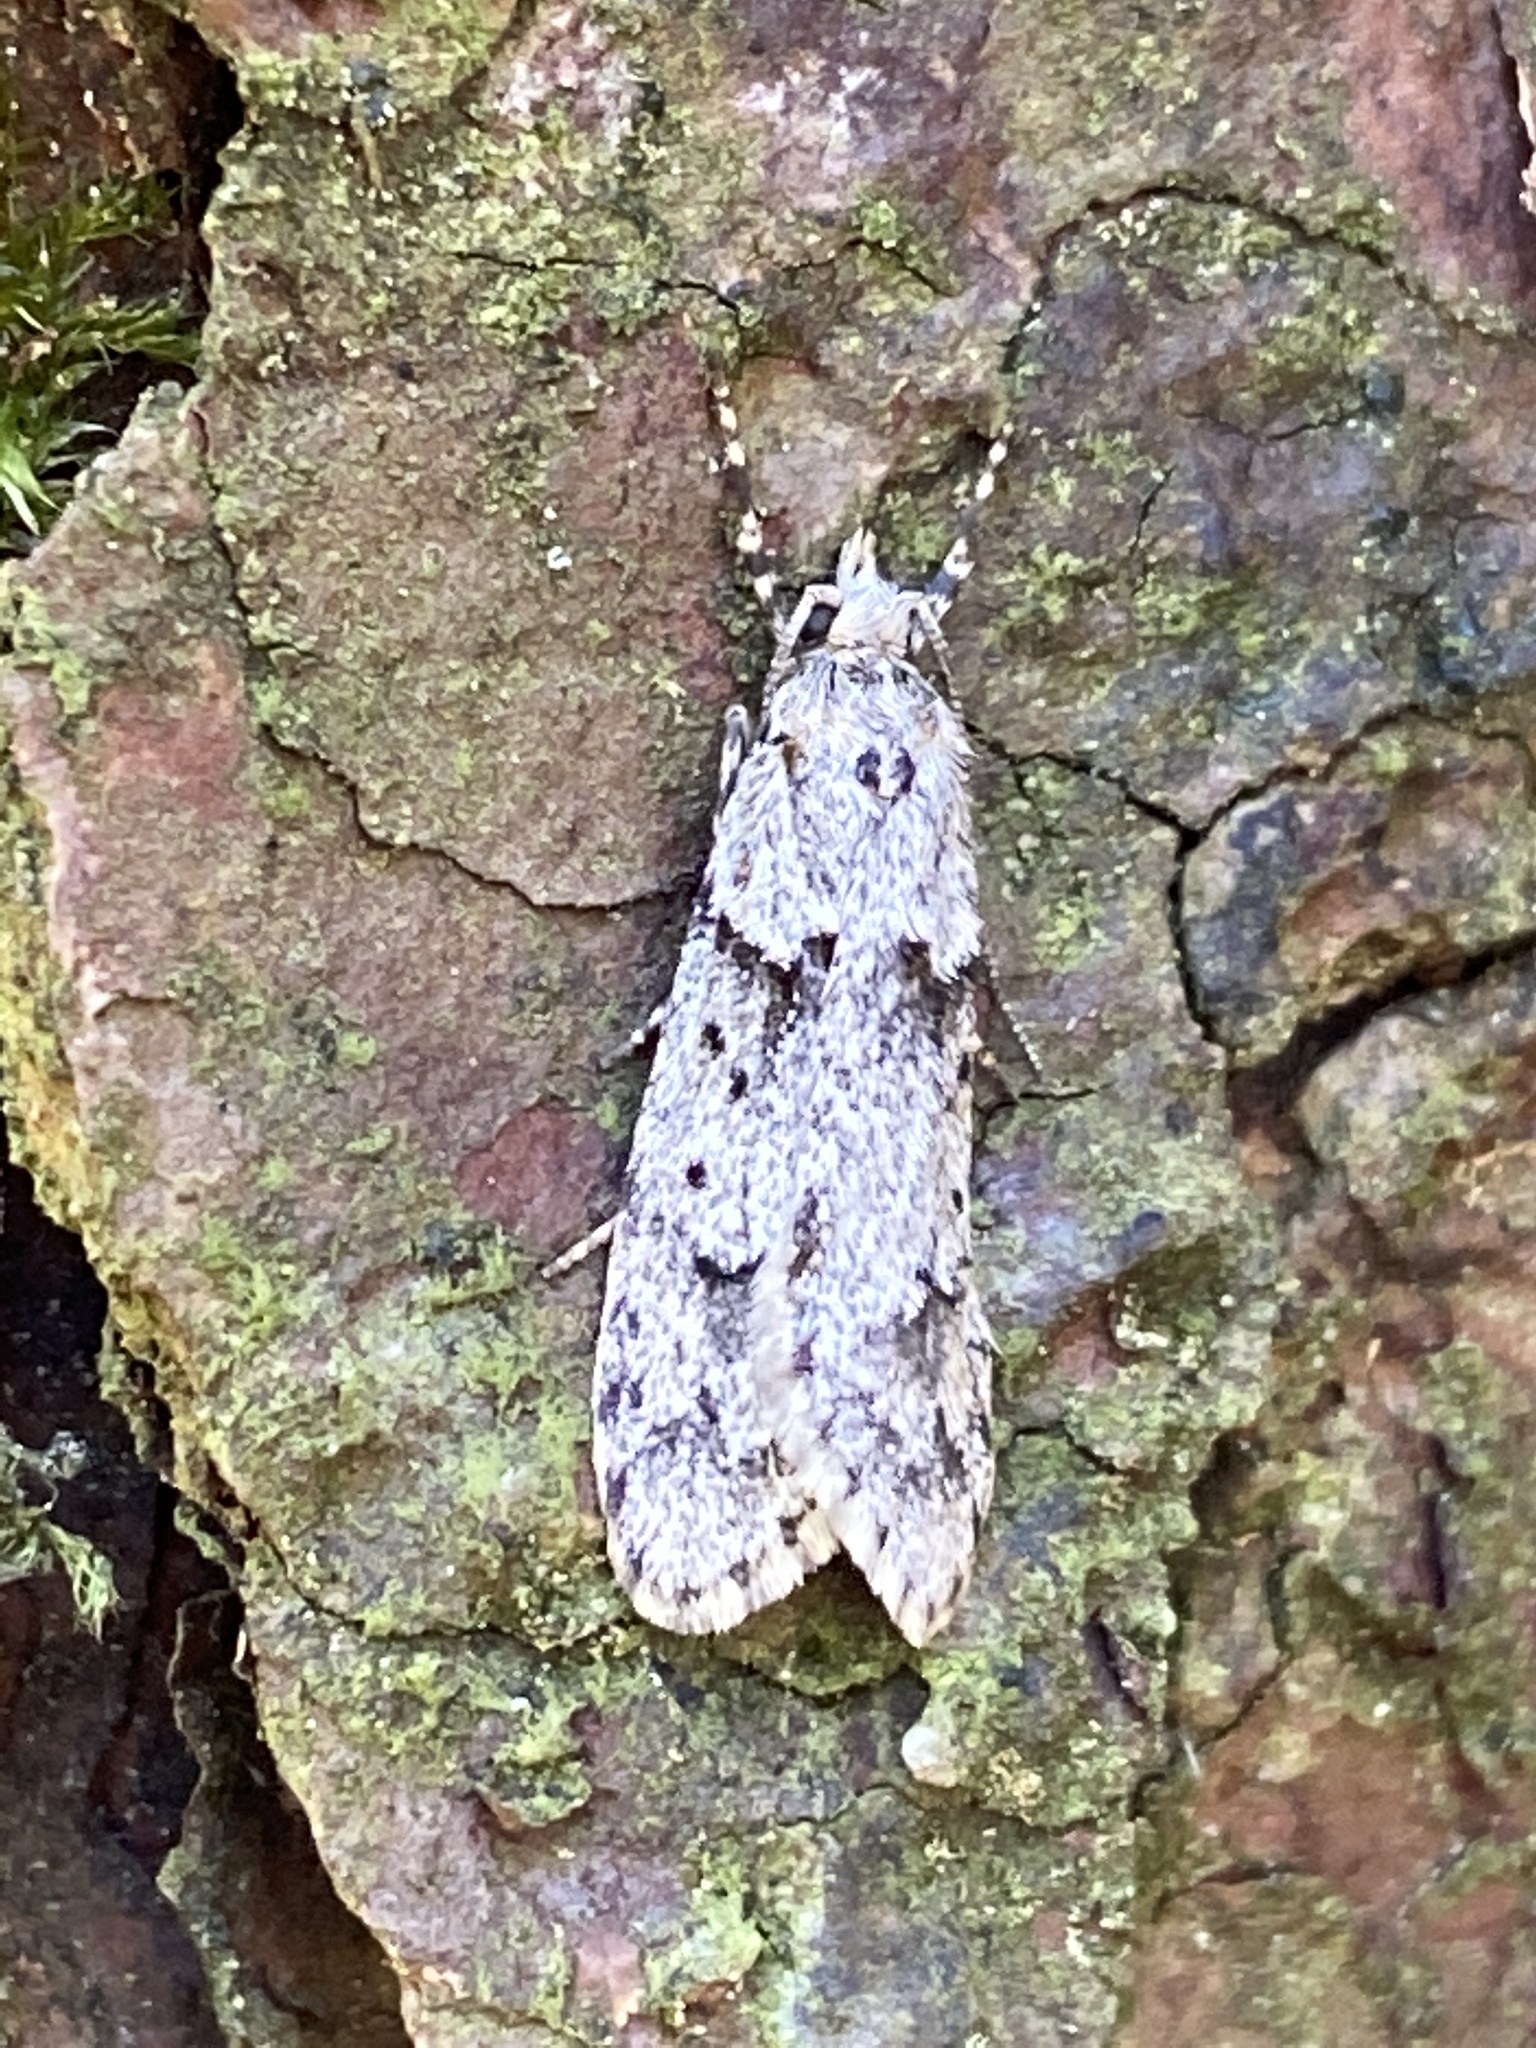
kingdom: Animalia
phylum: Arthropoda
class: Insecta
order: Lepidoptera
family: Lypusidae
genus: Diurnea
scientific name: Diurnea fagella
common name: March tubic
